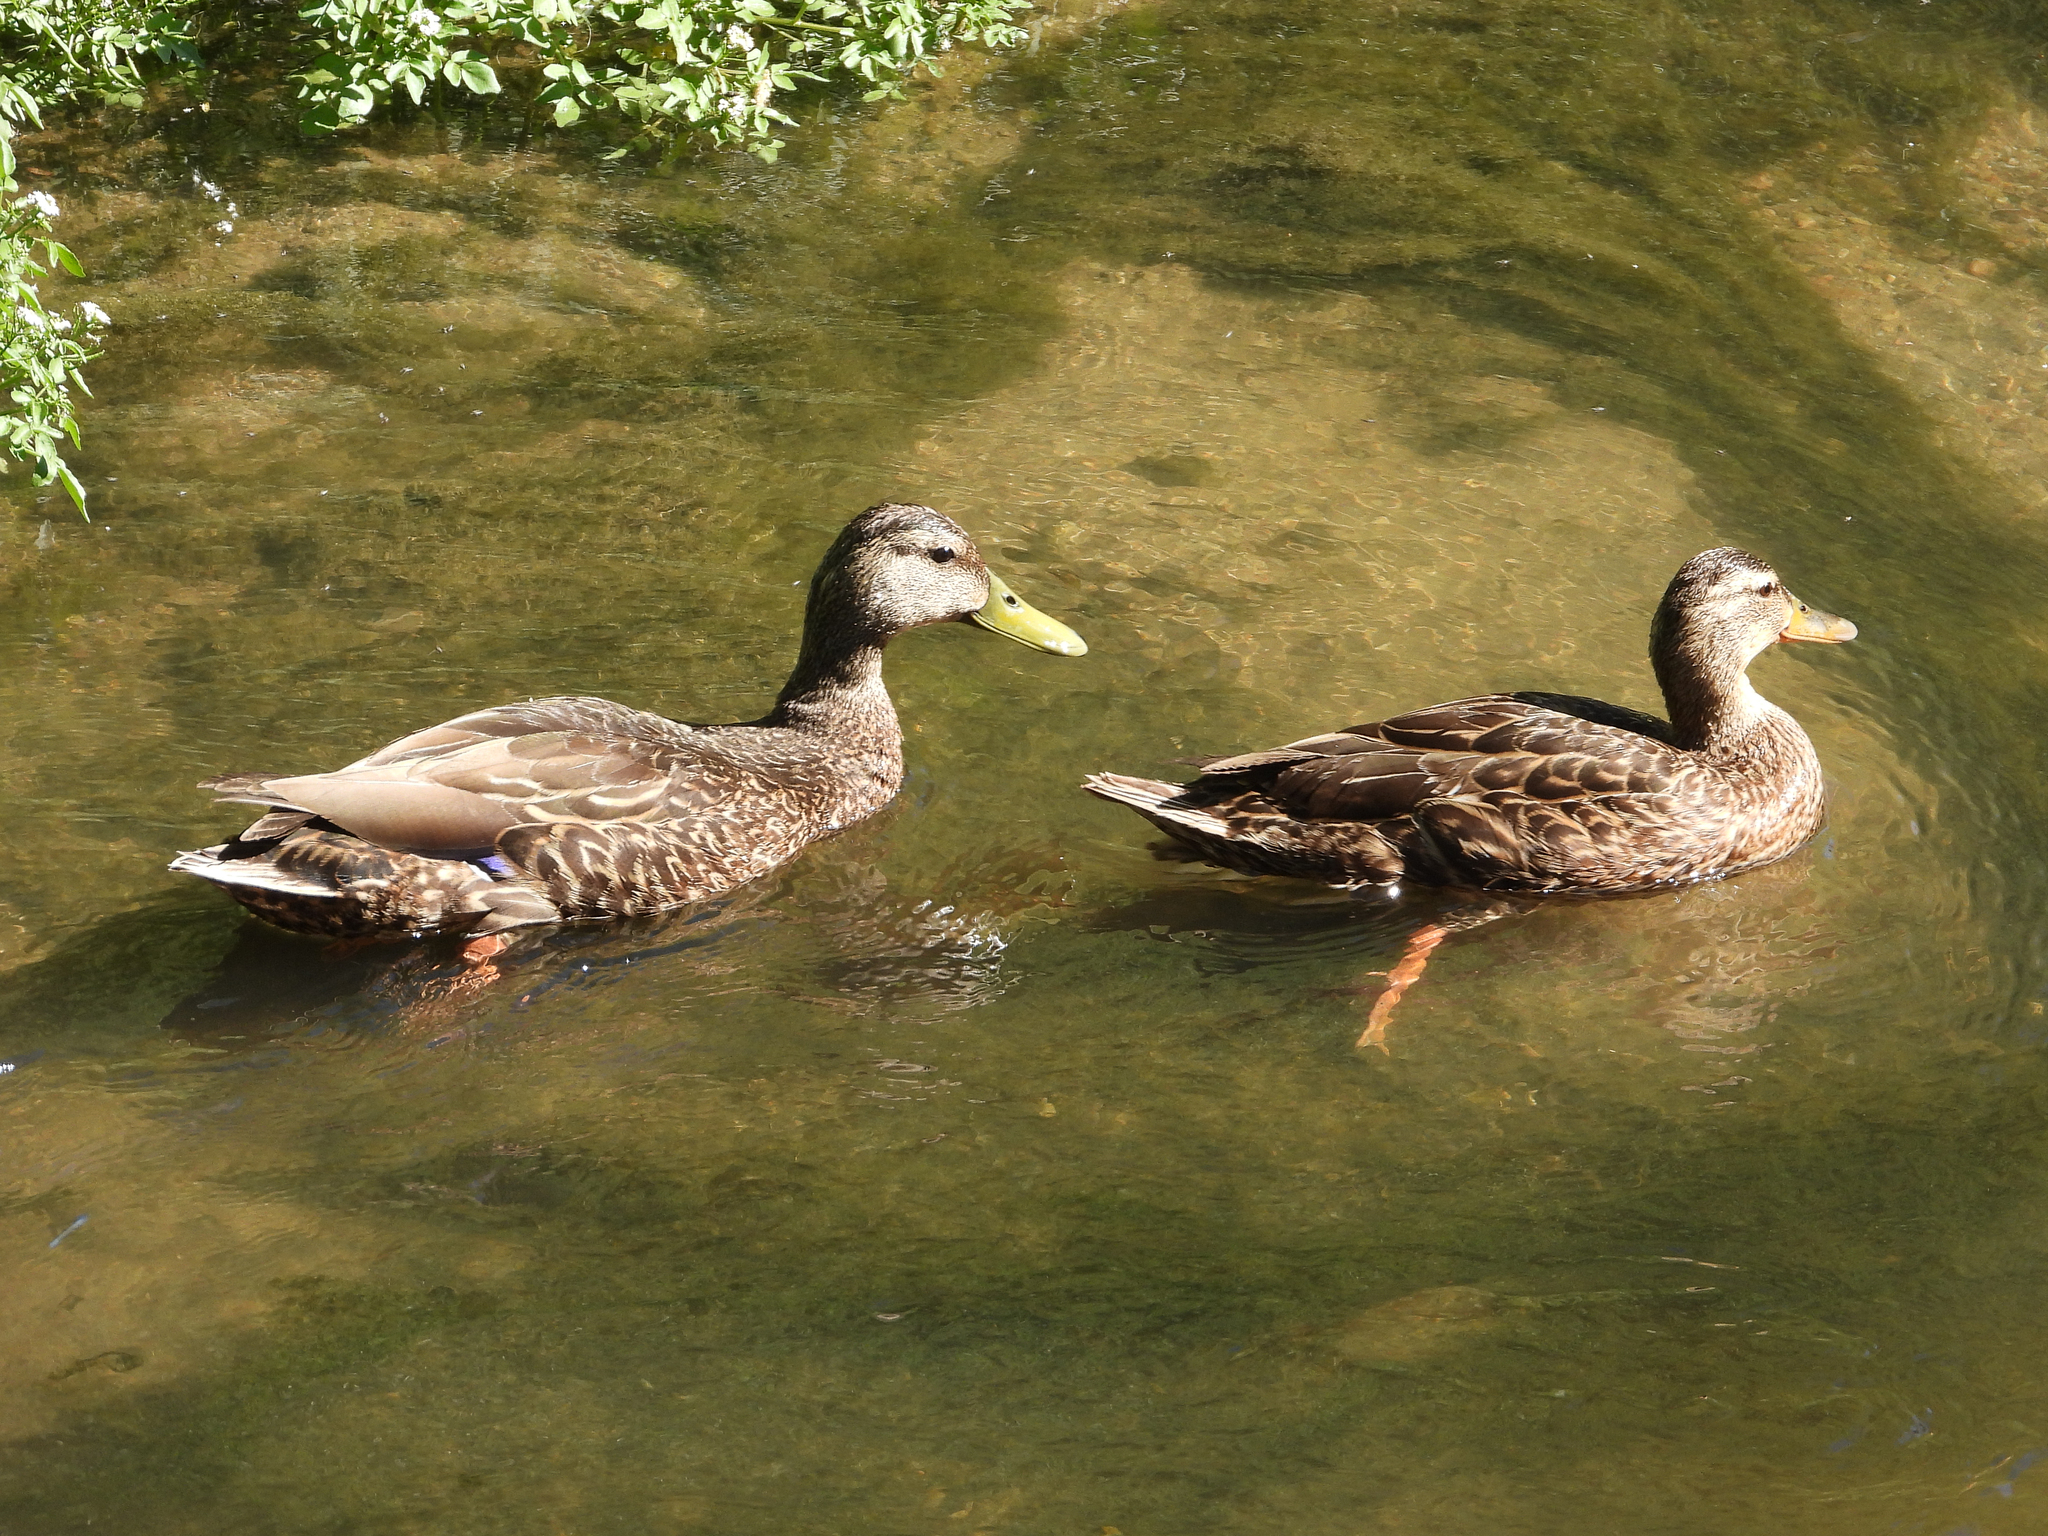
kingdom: Animalia
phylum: Chordata
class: Aves
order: Anseriformes
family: Anatidae
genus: Anas
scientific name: Anas diazi
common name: Mexican duck
